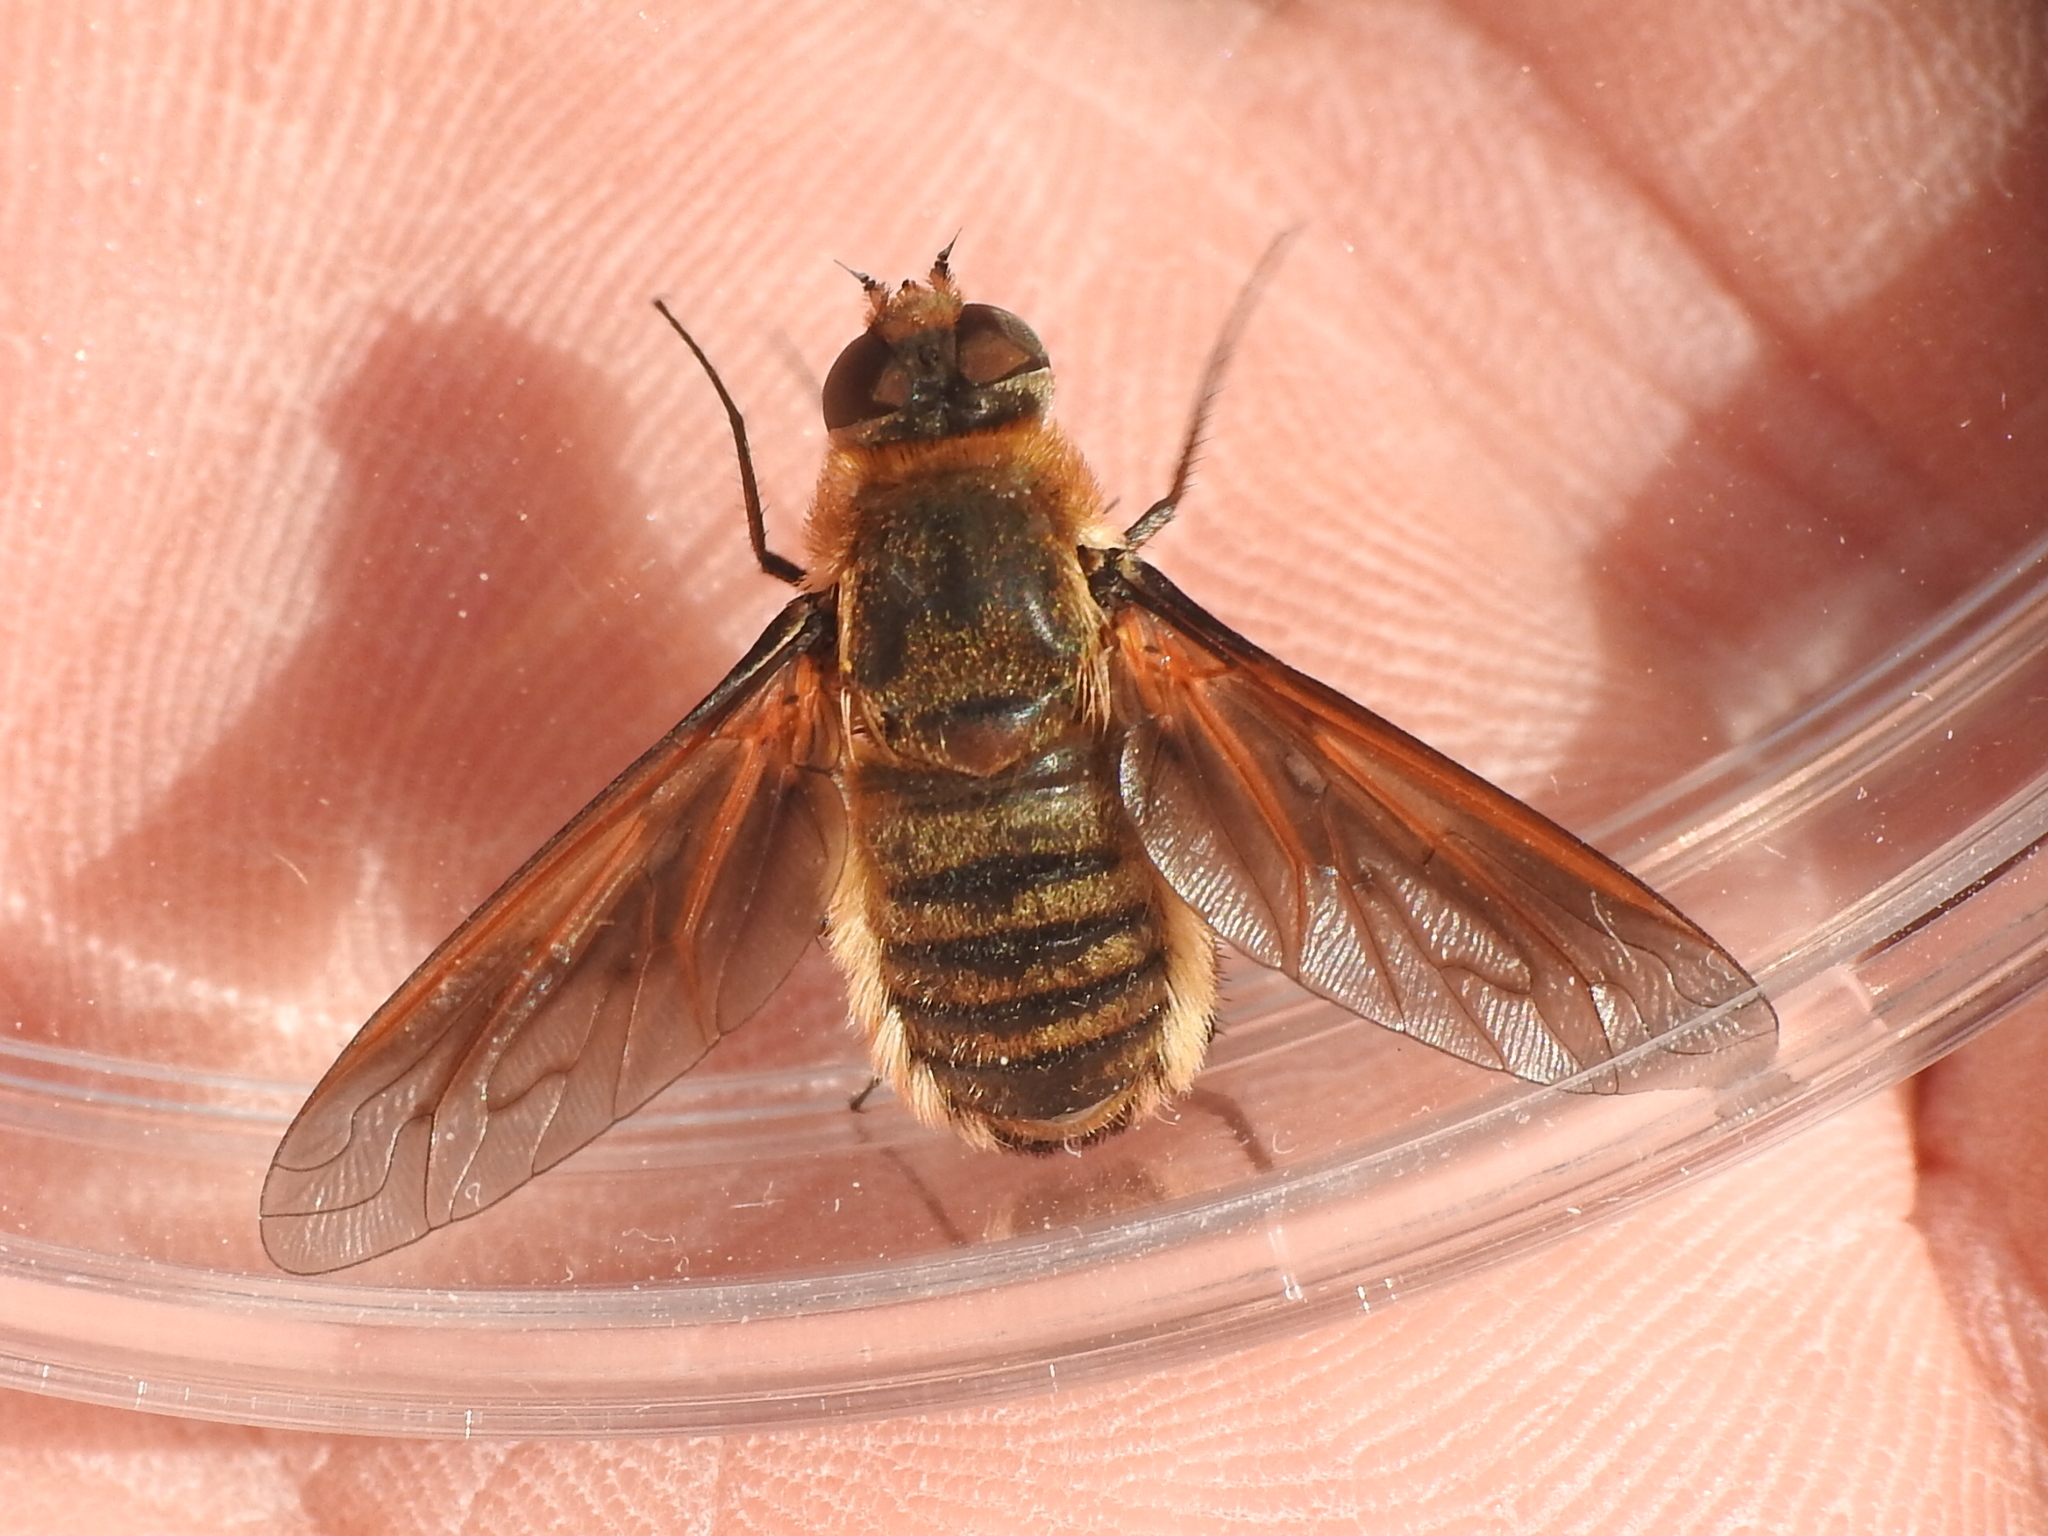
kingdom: Animalia
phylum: Arthropoda
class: Insecta
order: Diptera
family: Bombyliidae
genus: Poecilanthrax
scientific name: Poecilanthrax lucifer
